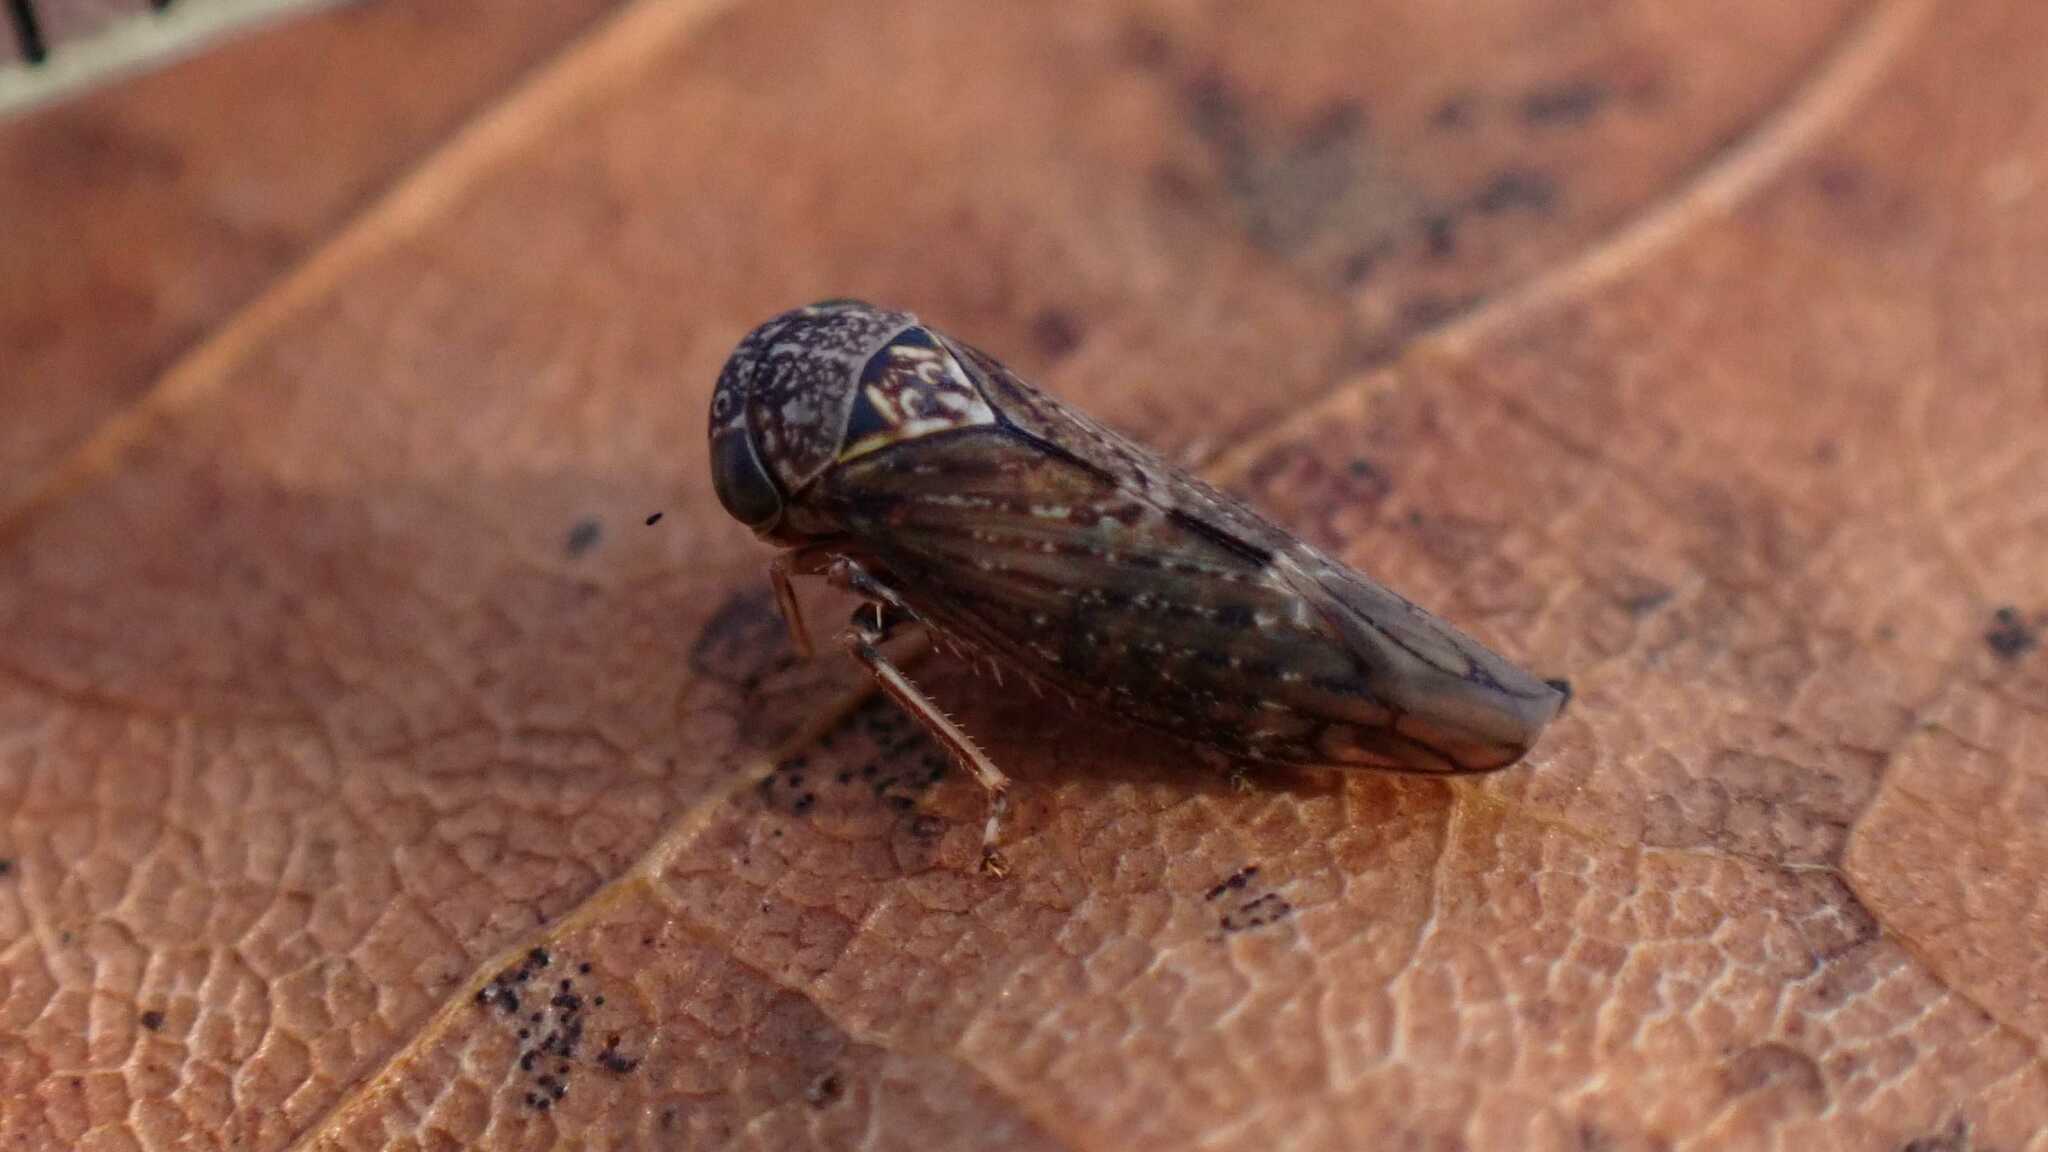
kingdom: Animalia
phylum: Arthropoda
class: Insecta
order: Hemiptera
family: Cicadellidae
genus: Acericerus
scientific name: Acericerus ribauti
